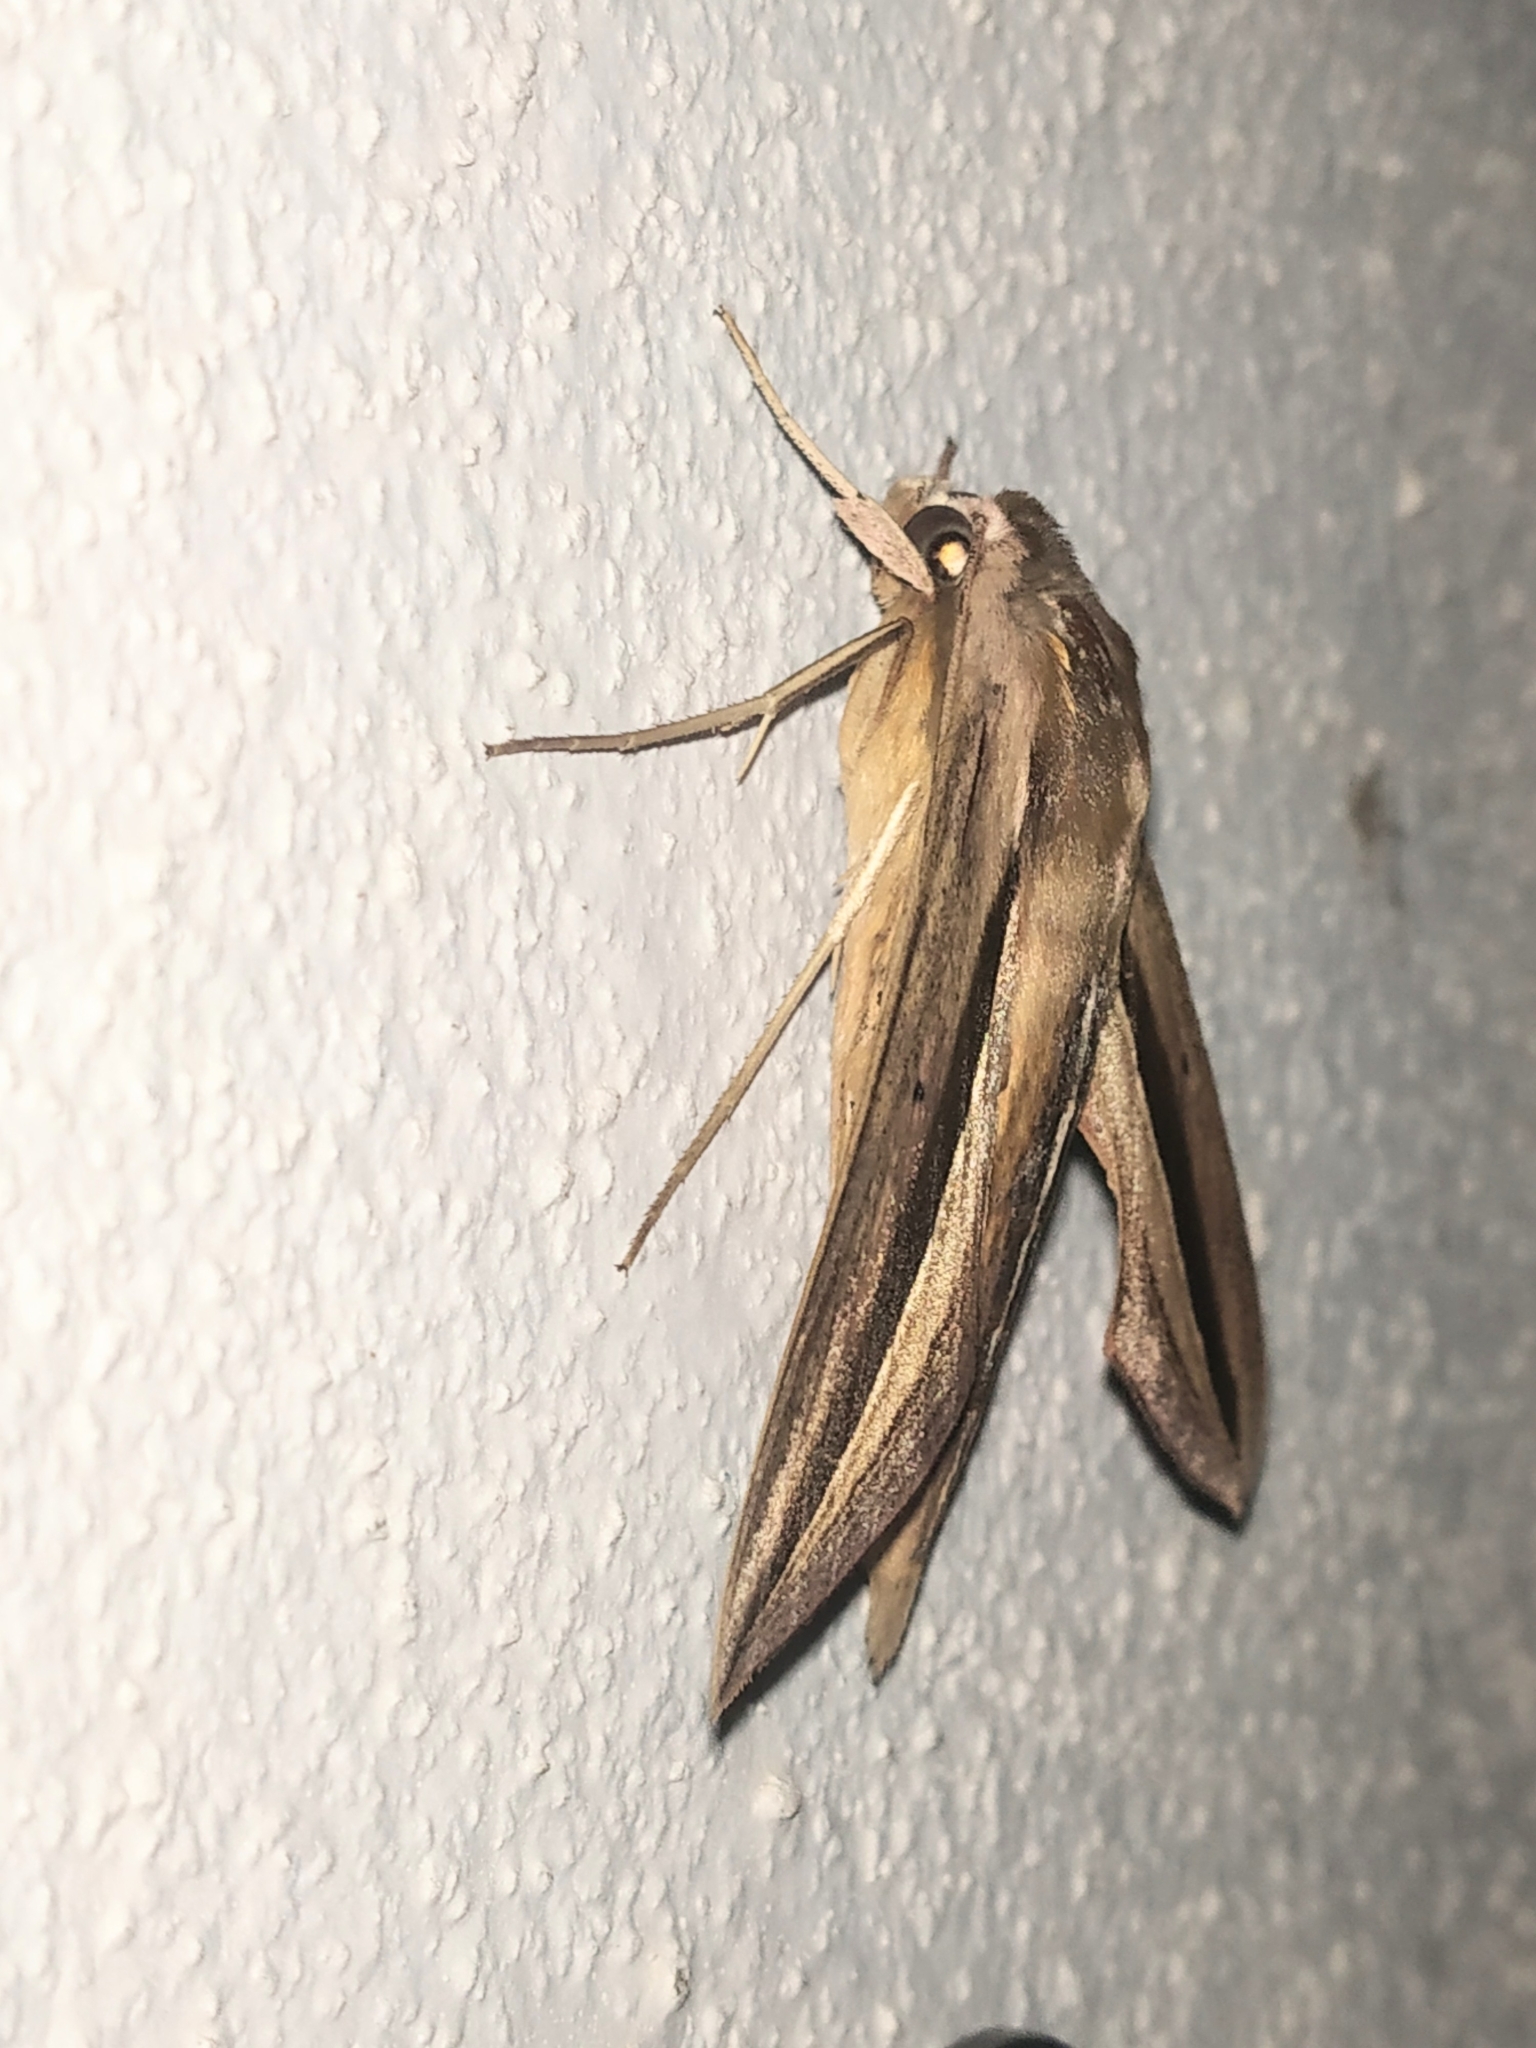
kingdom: Animalia
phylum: Arthropoda
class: Insecta
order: Lepidoptera
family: Sphingidae
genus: Theretra
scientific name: Theretra silhetensis
